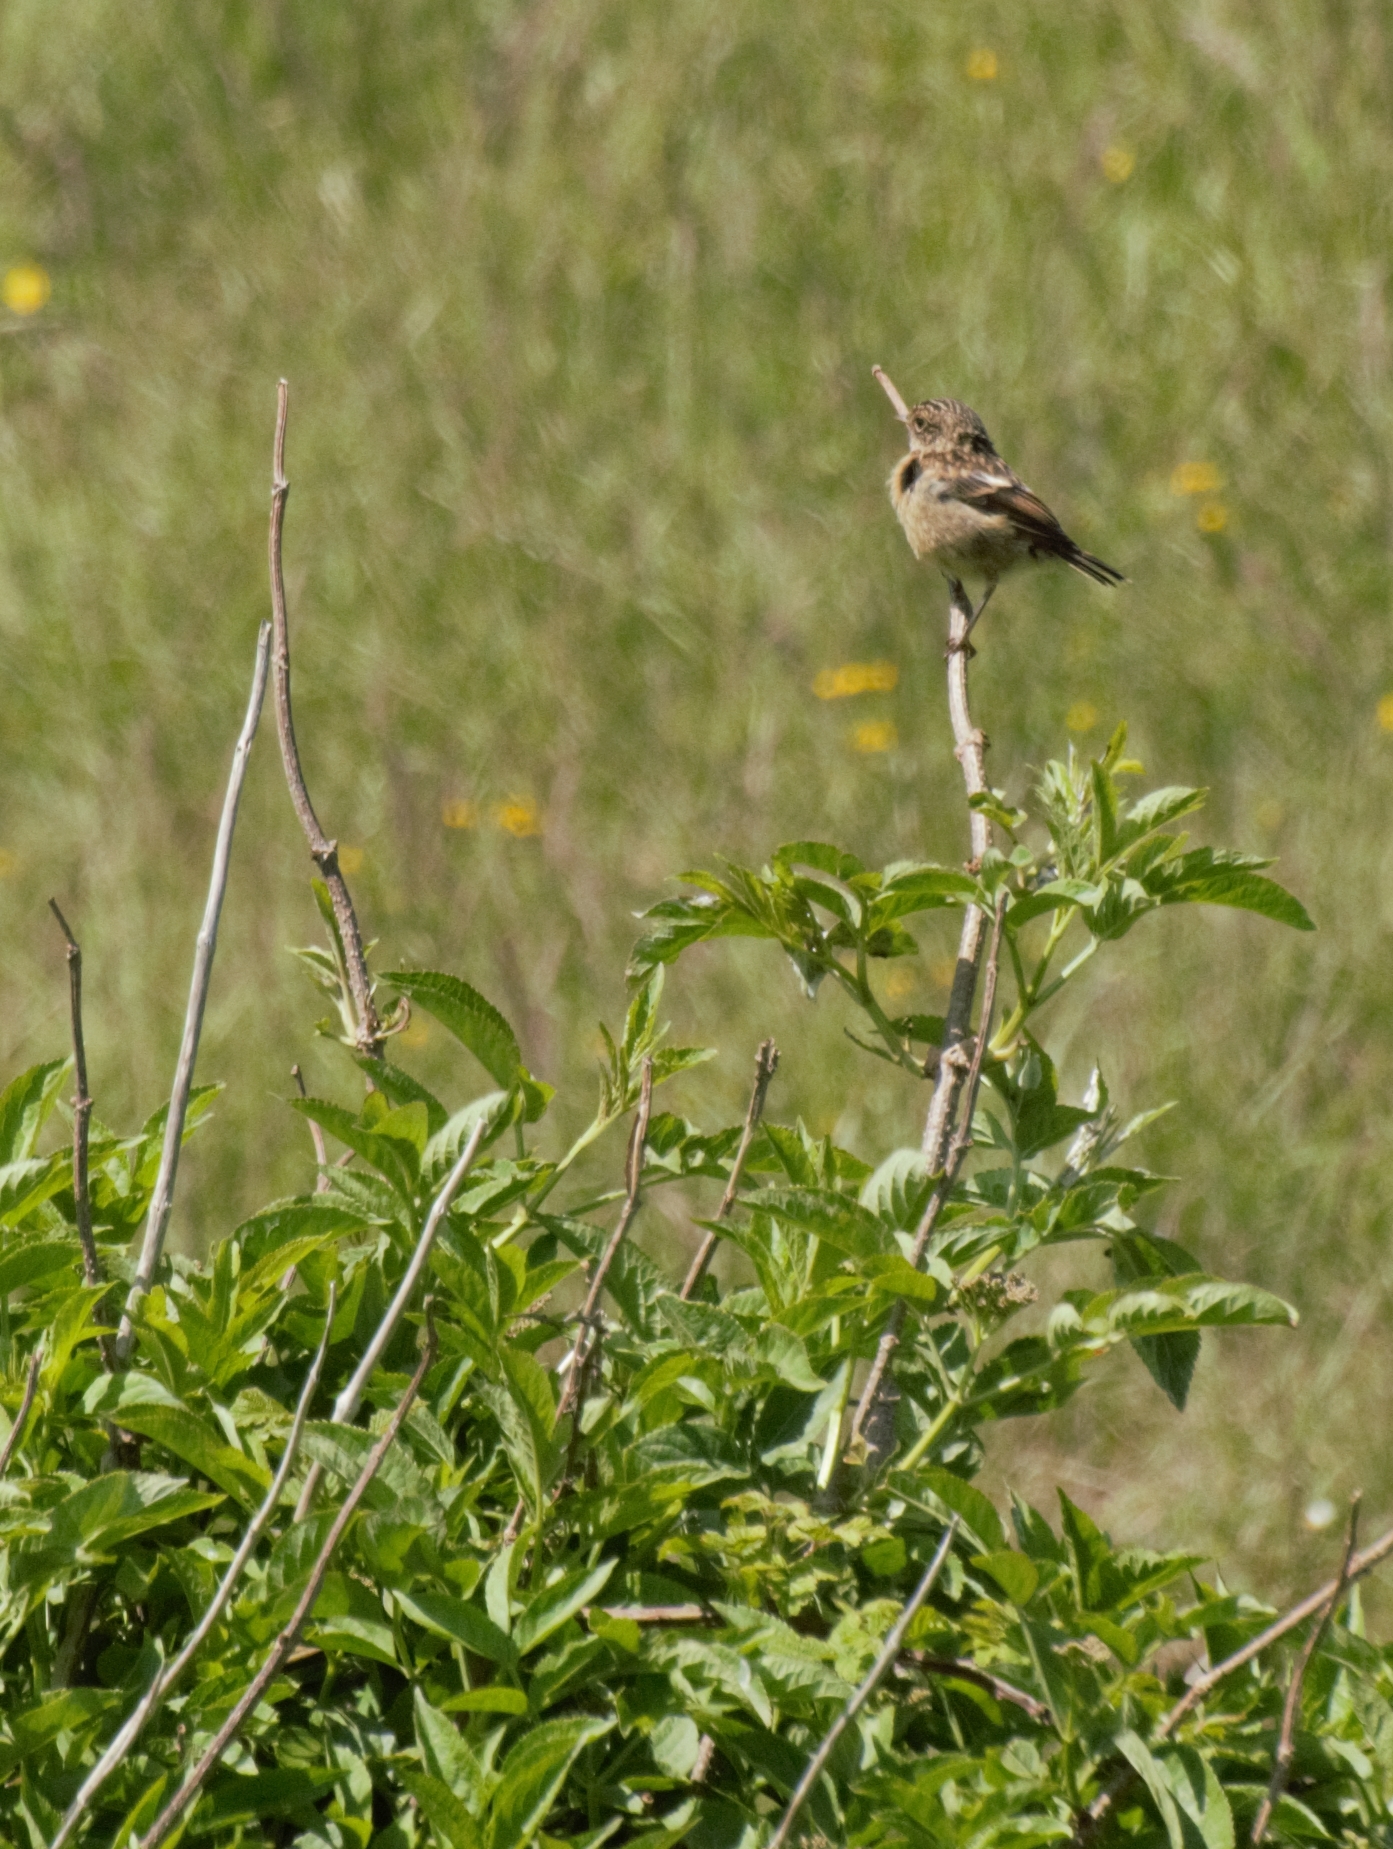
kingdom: Animalia
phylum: Chordata
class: Aves
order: Passeriformes
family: Muscicapidae
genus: Saxicola
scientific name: Saxicola rubicola
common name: European stonechat
